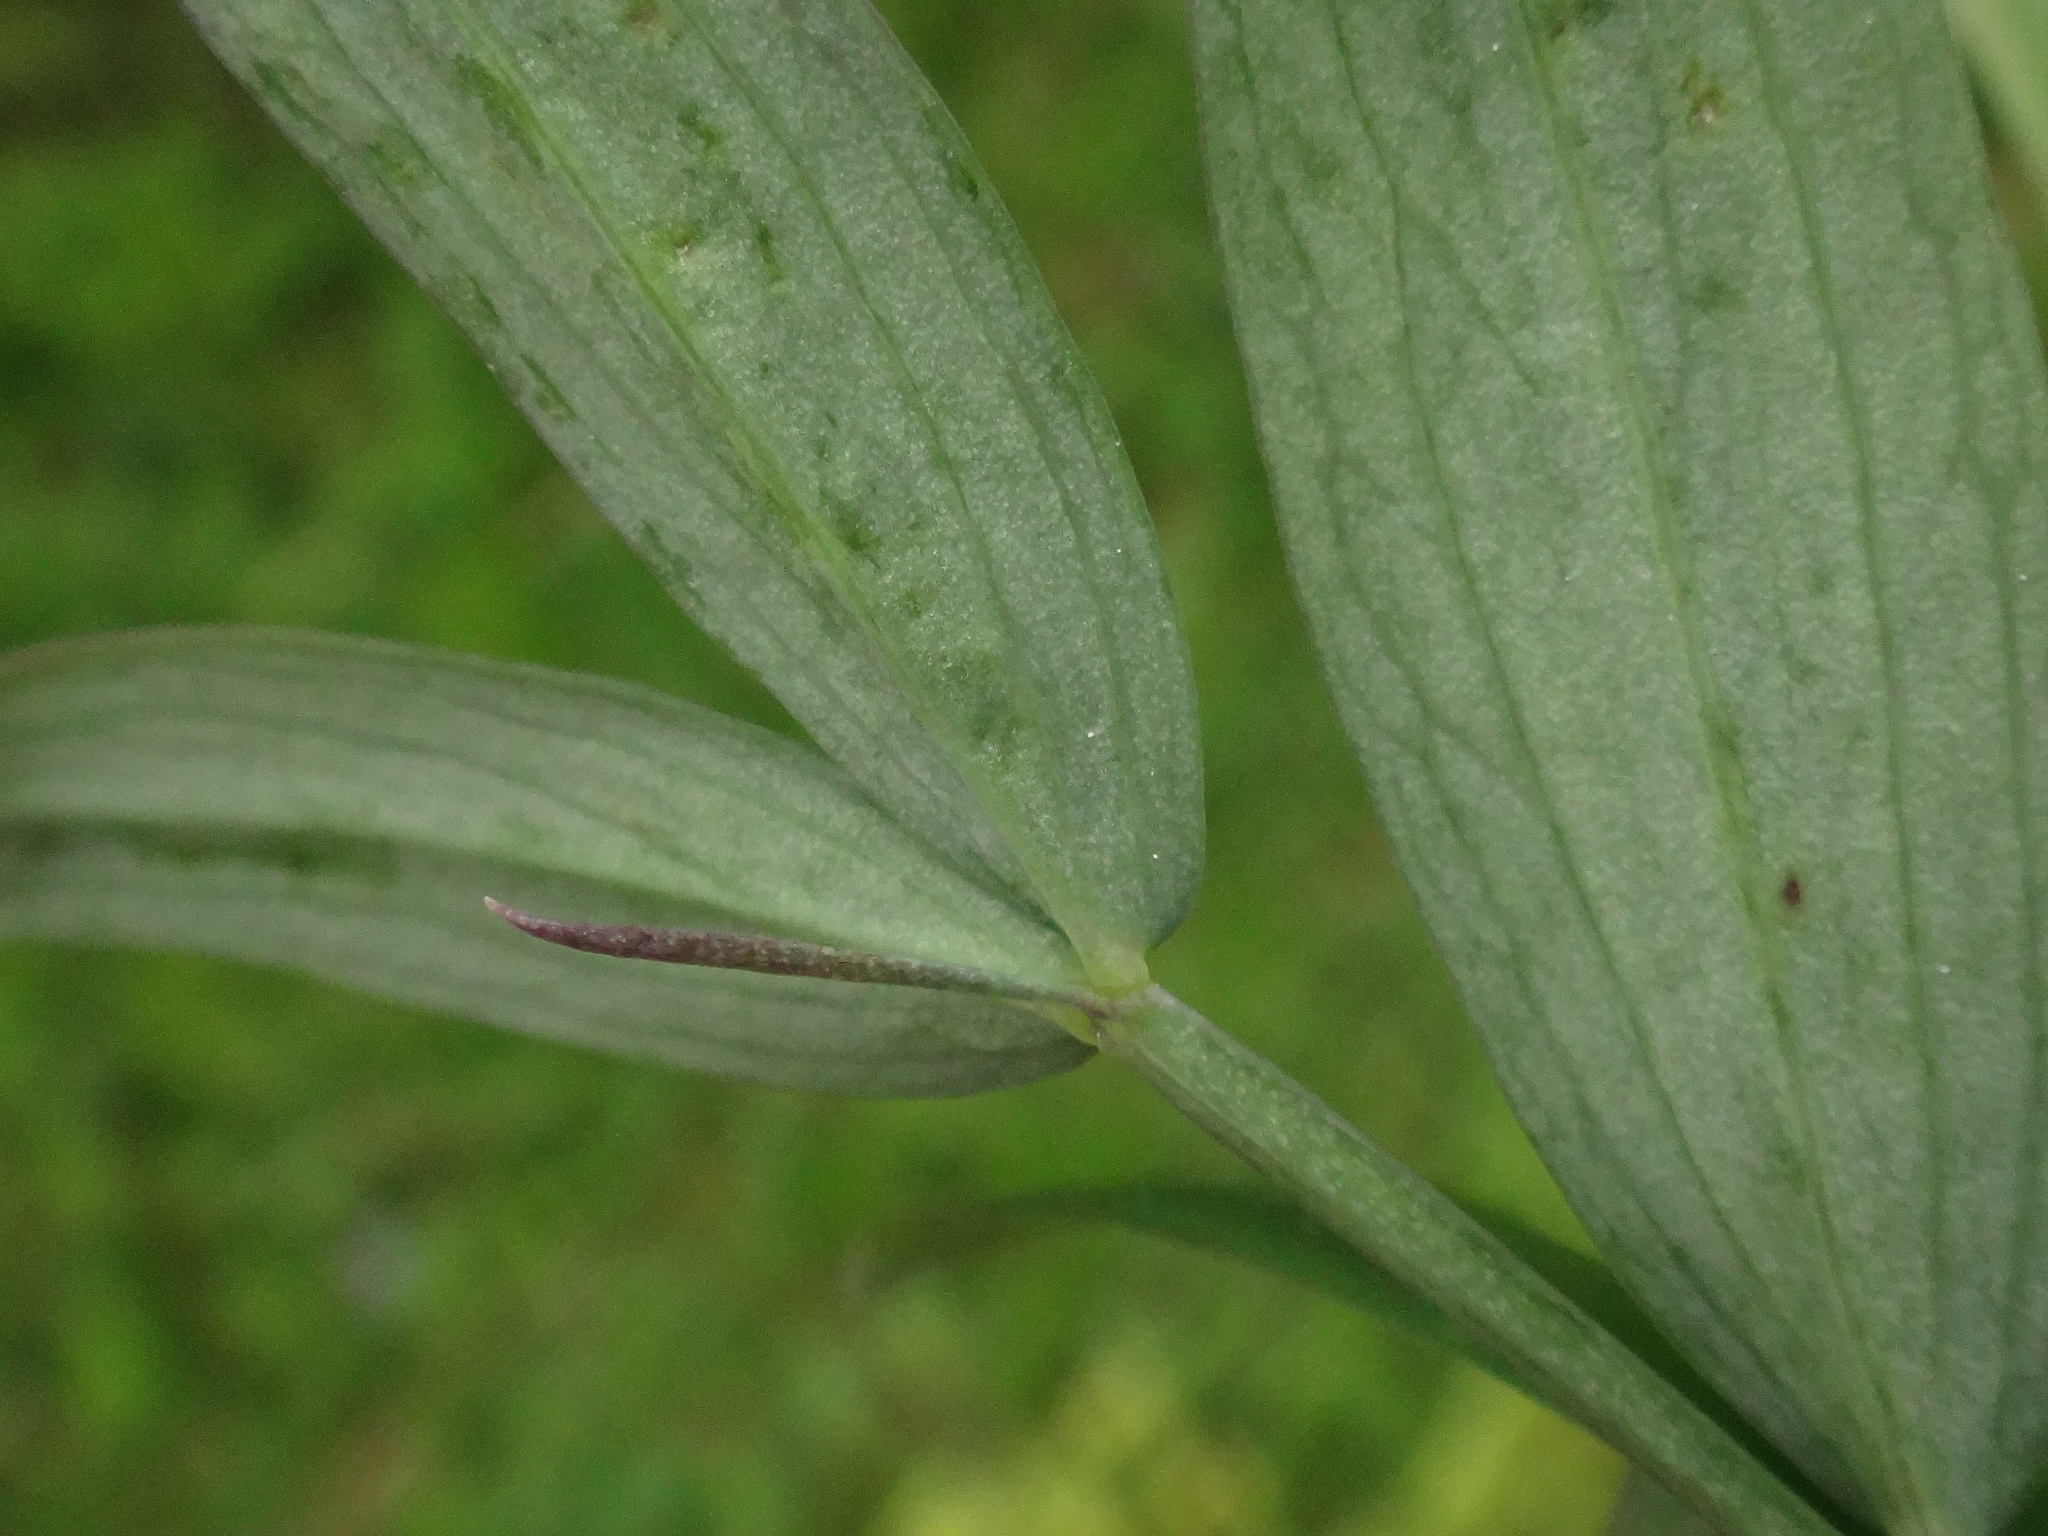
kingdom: Plantae
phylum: Tracheophyta
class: Magnoliopsida
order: Fabales
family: Fabaceae
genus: Lathyrus
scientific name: Lathyrus linifolius
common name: Bitter-vetch
